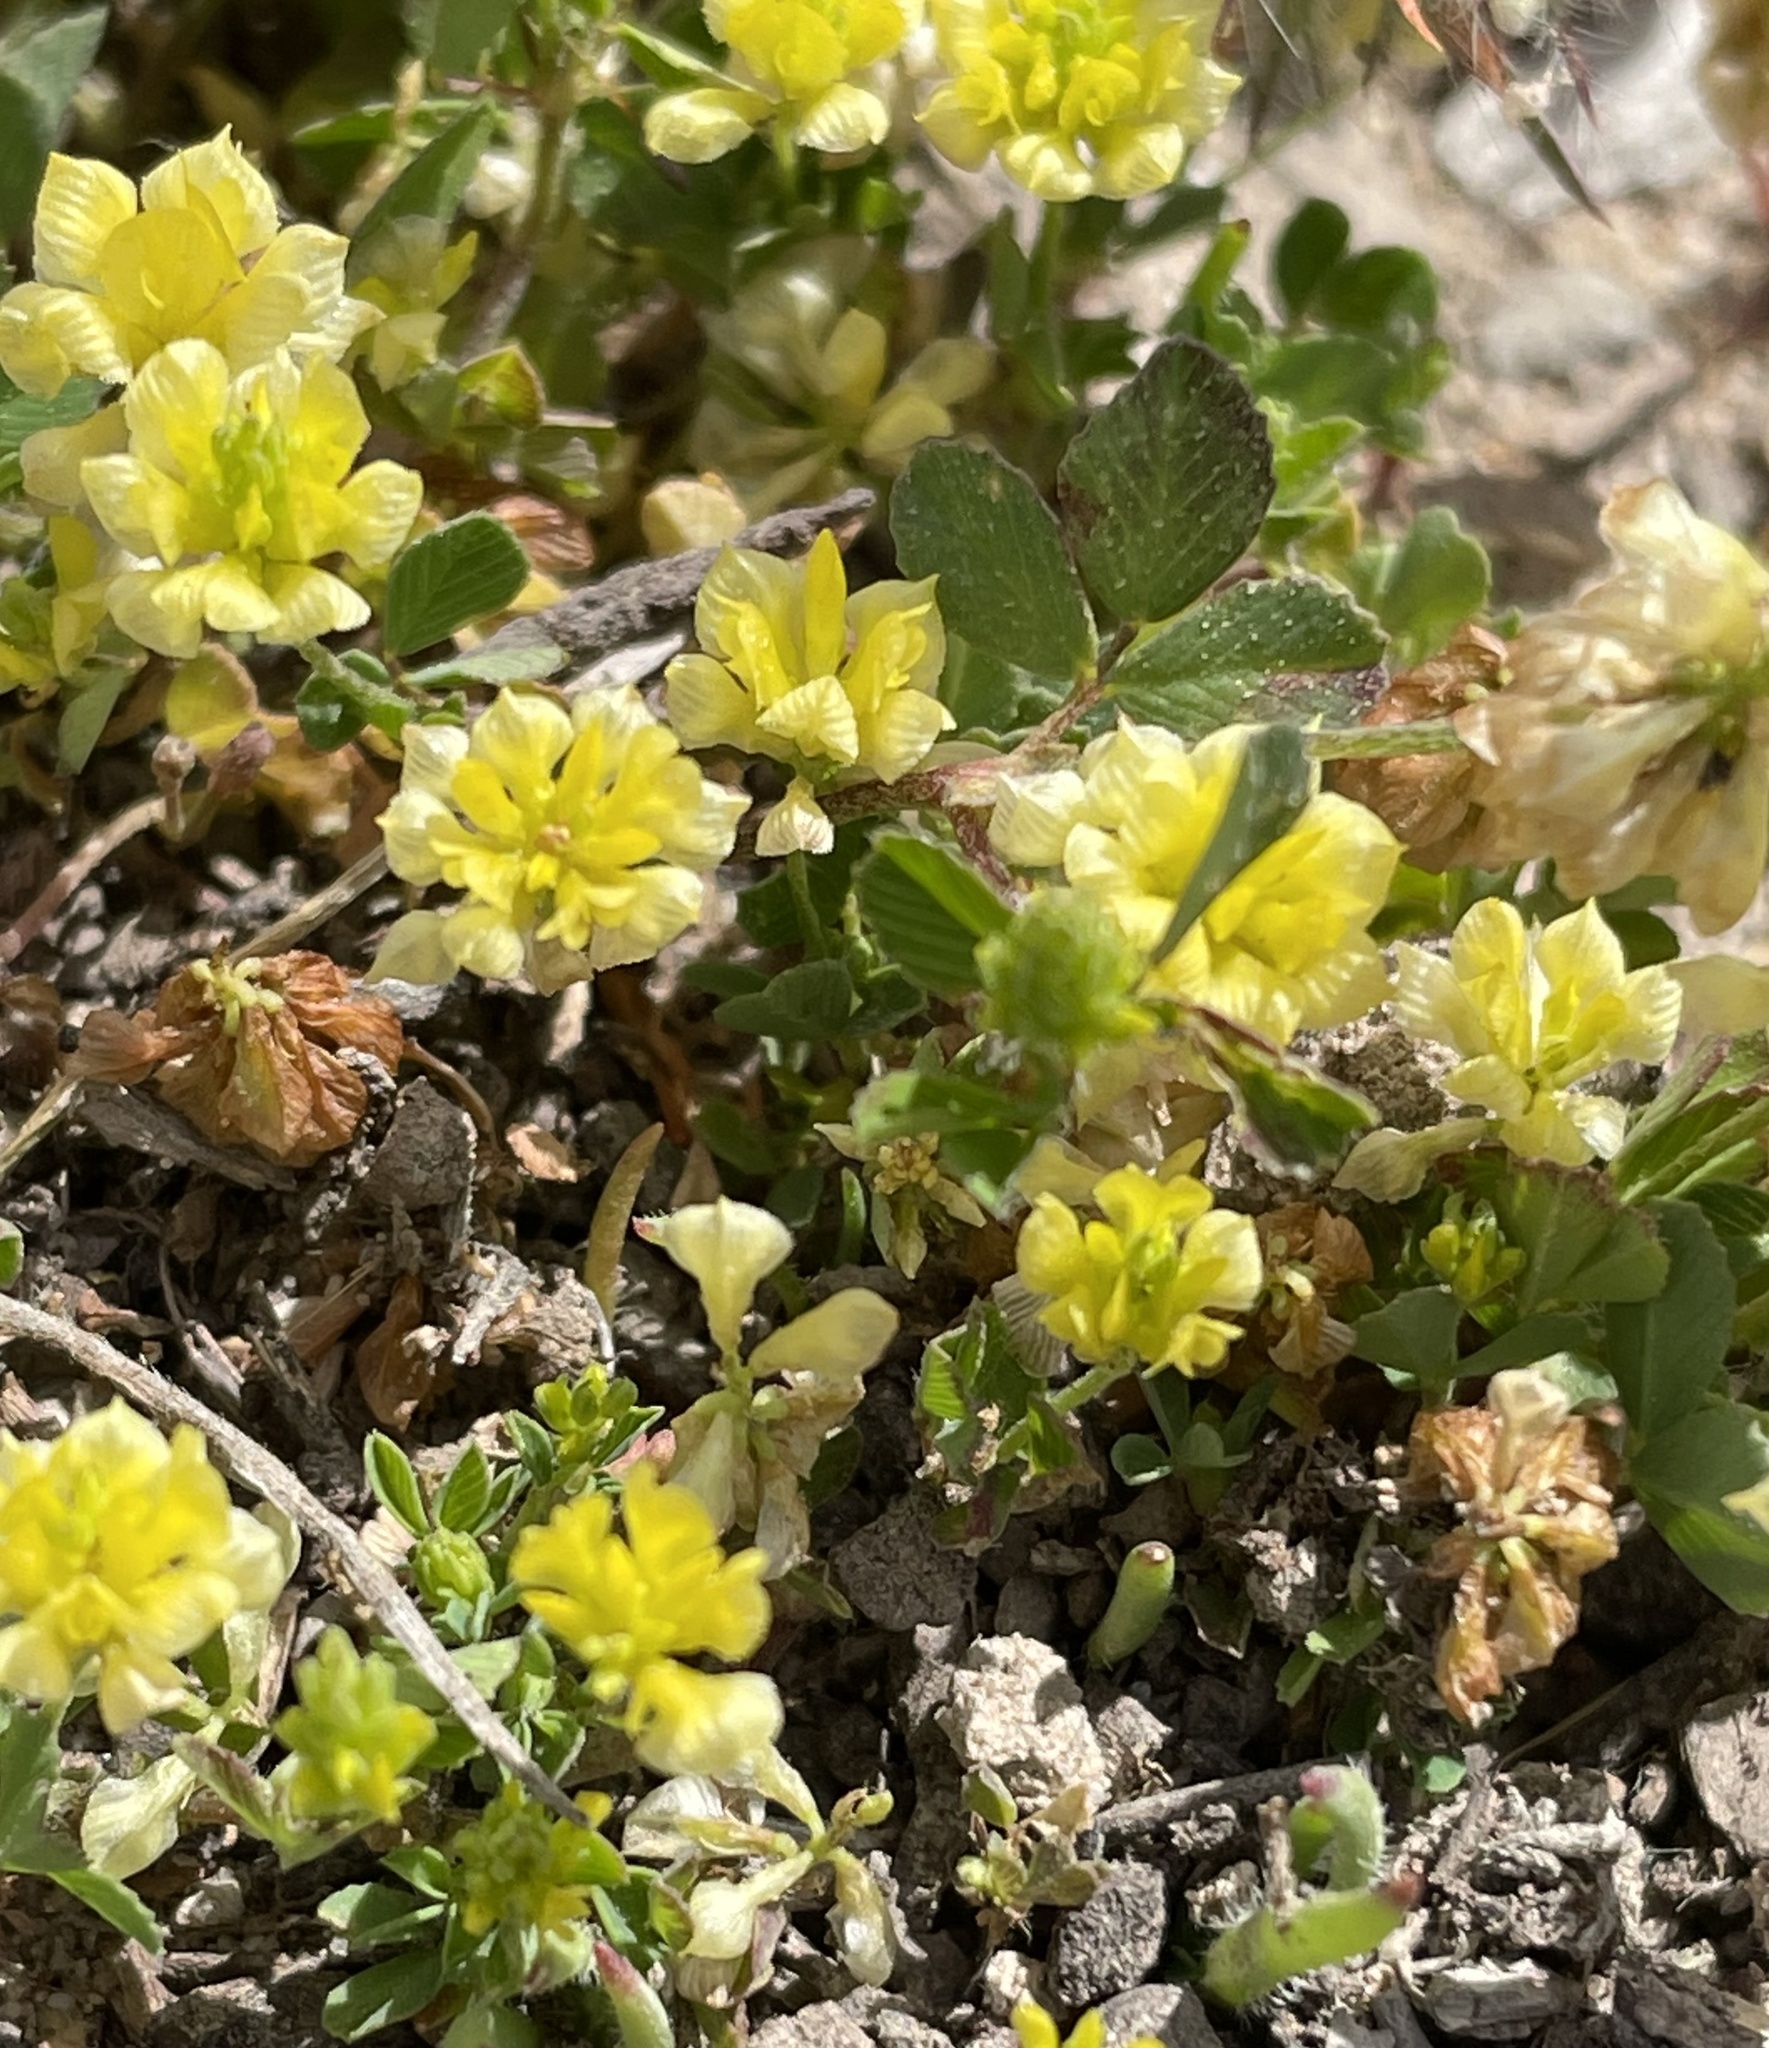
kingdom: Plantae
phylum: Tracheophyta
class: Magnoliopsida
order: Fabales
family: Fabaceae
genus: Trifolium
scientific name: Trifolium campestre
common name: Field clover
